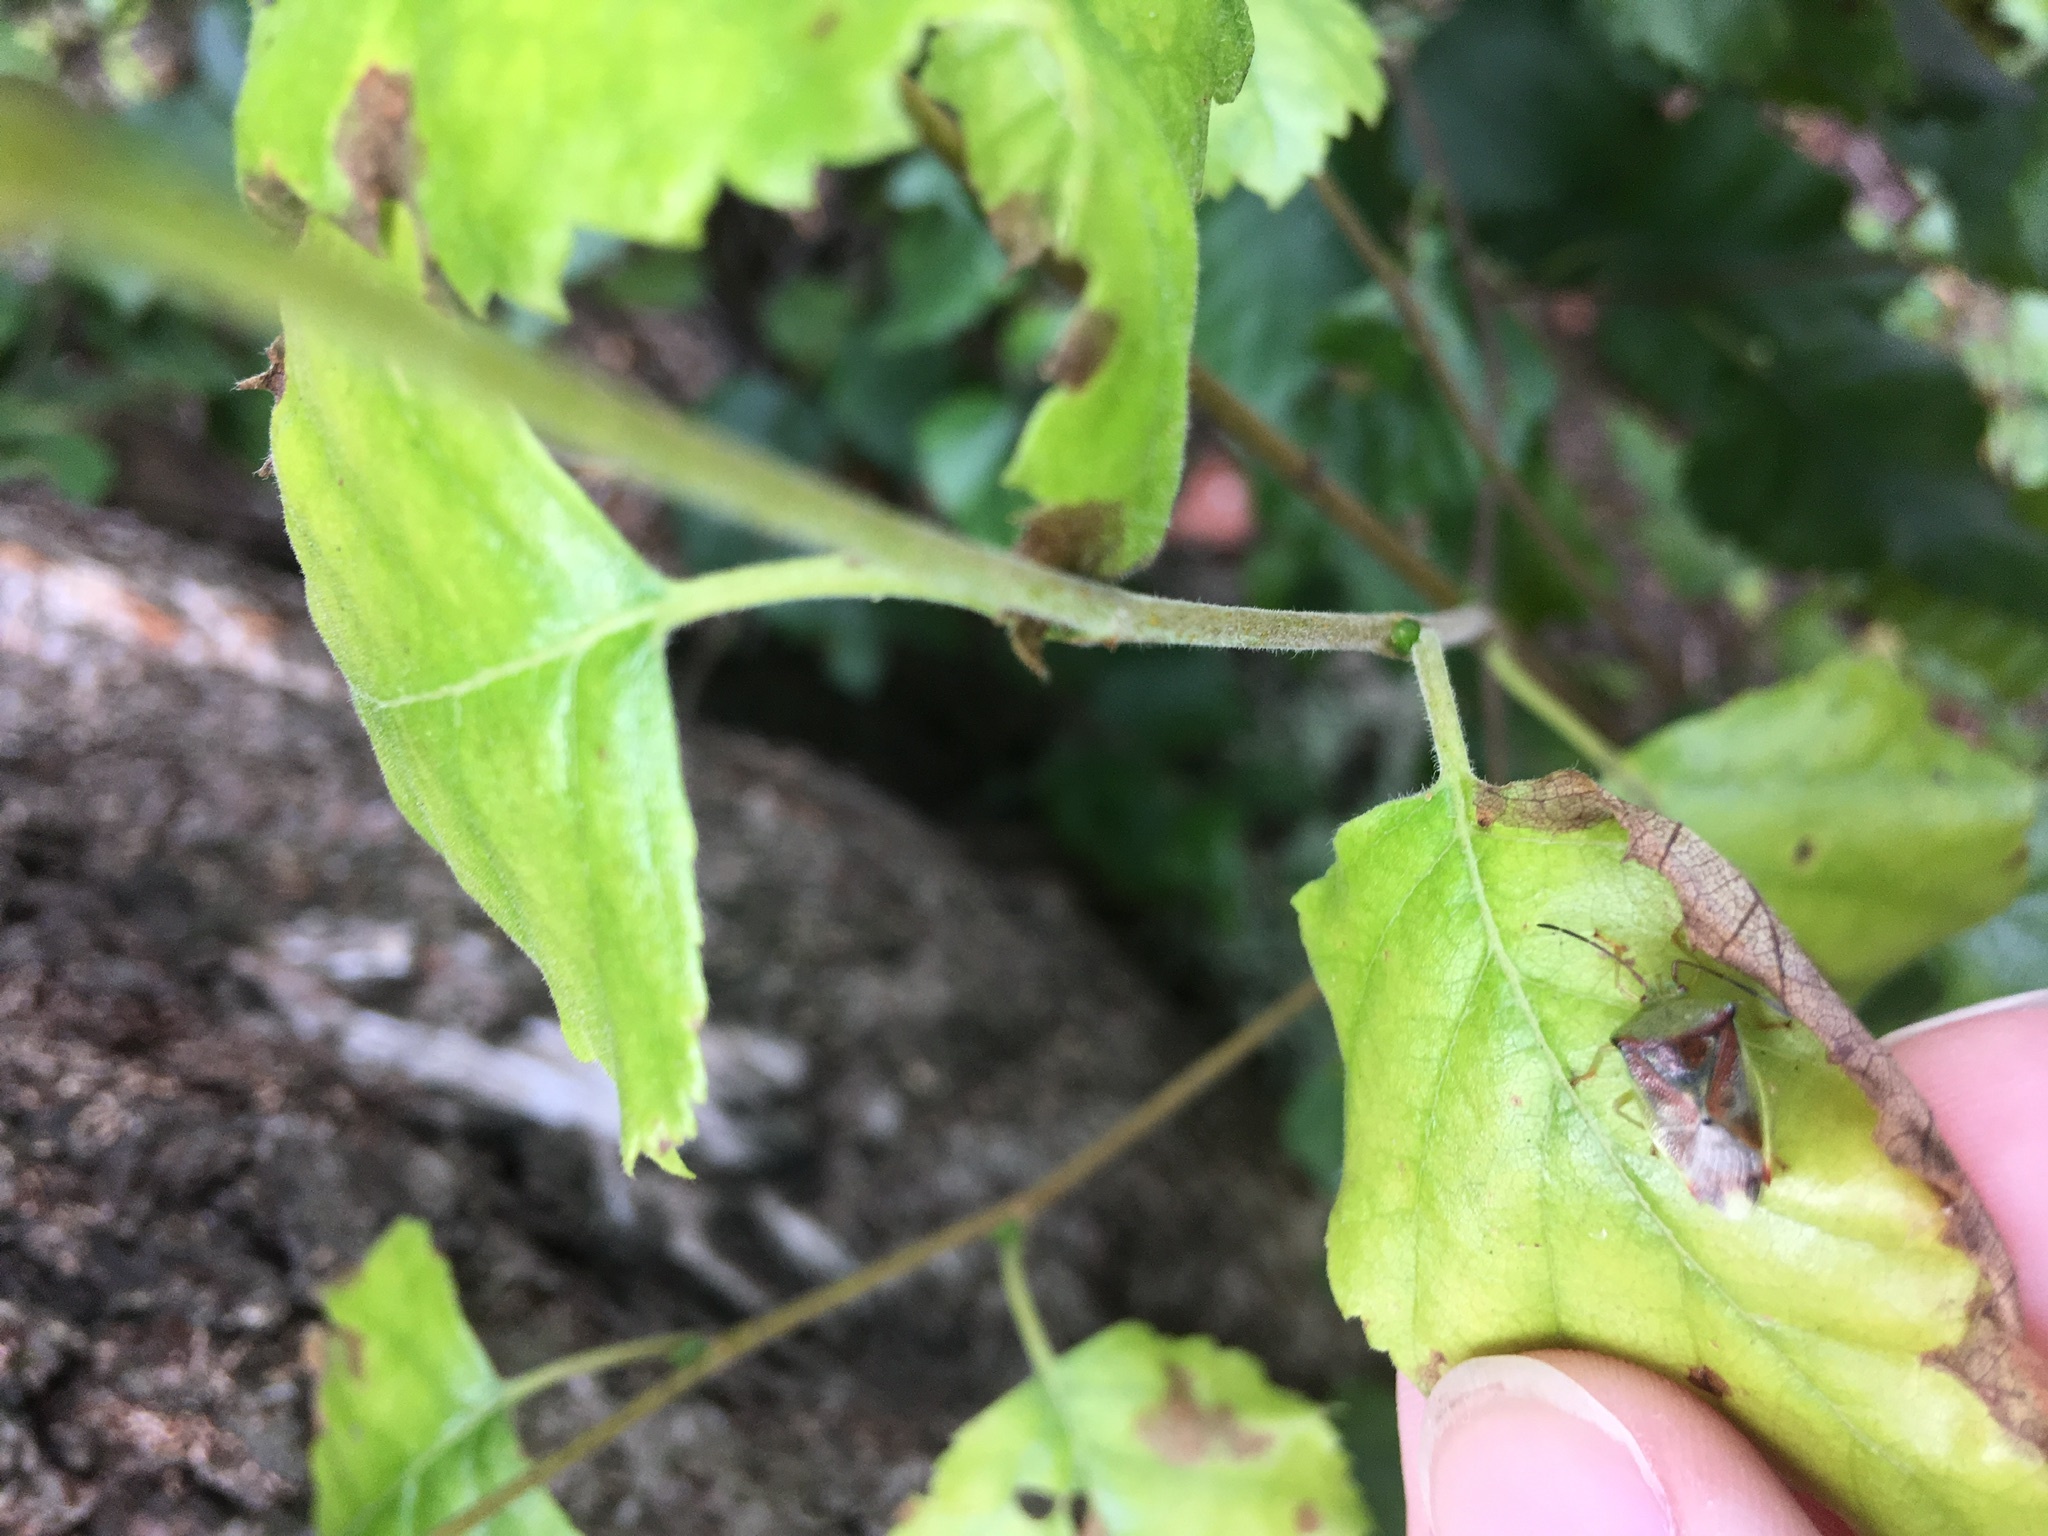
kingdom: Animalia
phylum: Arthropoda
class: Insecta
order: Hemiptera
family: Acanthosomatidae
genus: Elasmostethus
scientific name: Elasmostethus interstinctus
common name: Birch shieldbug
